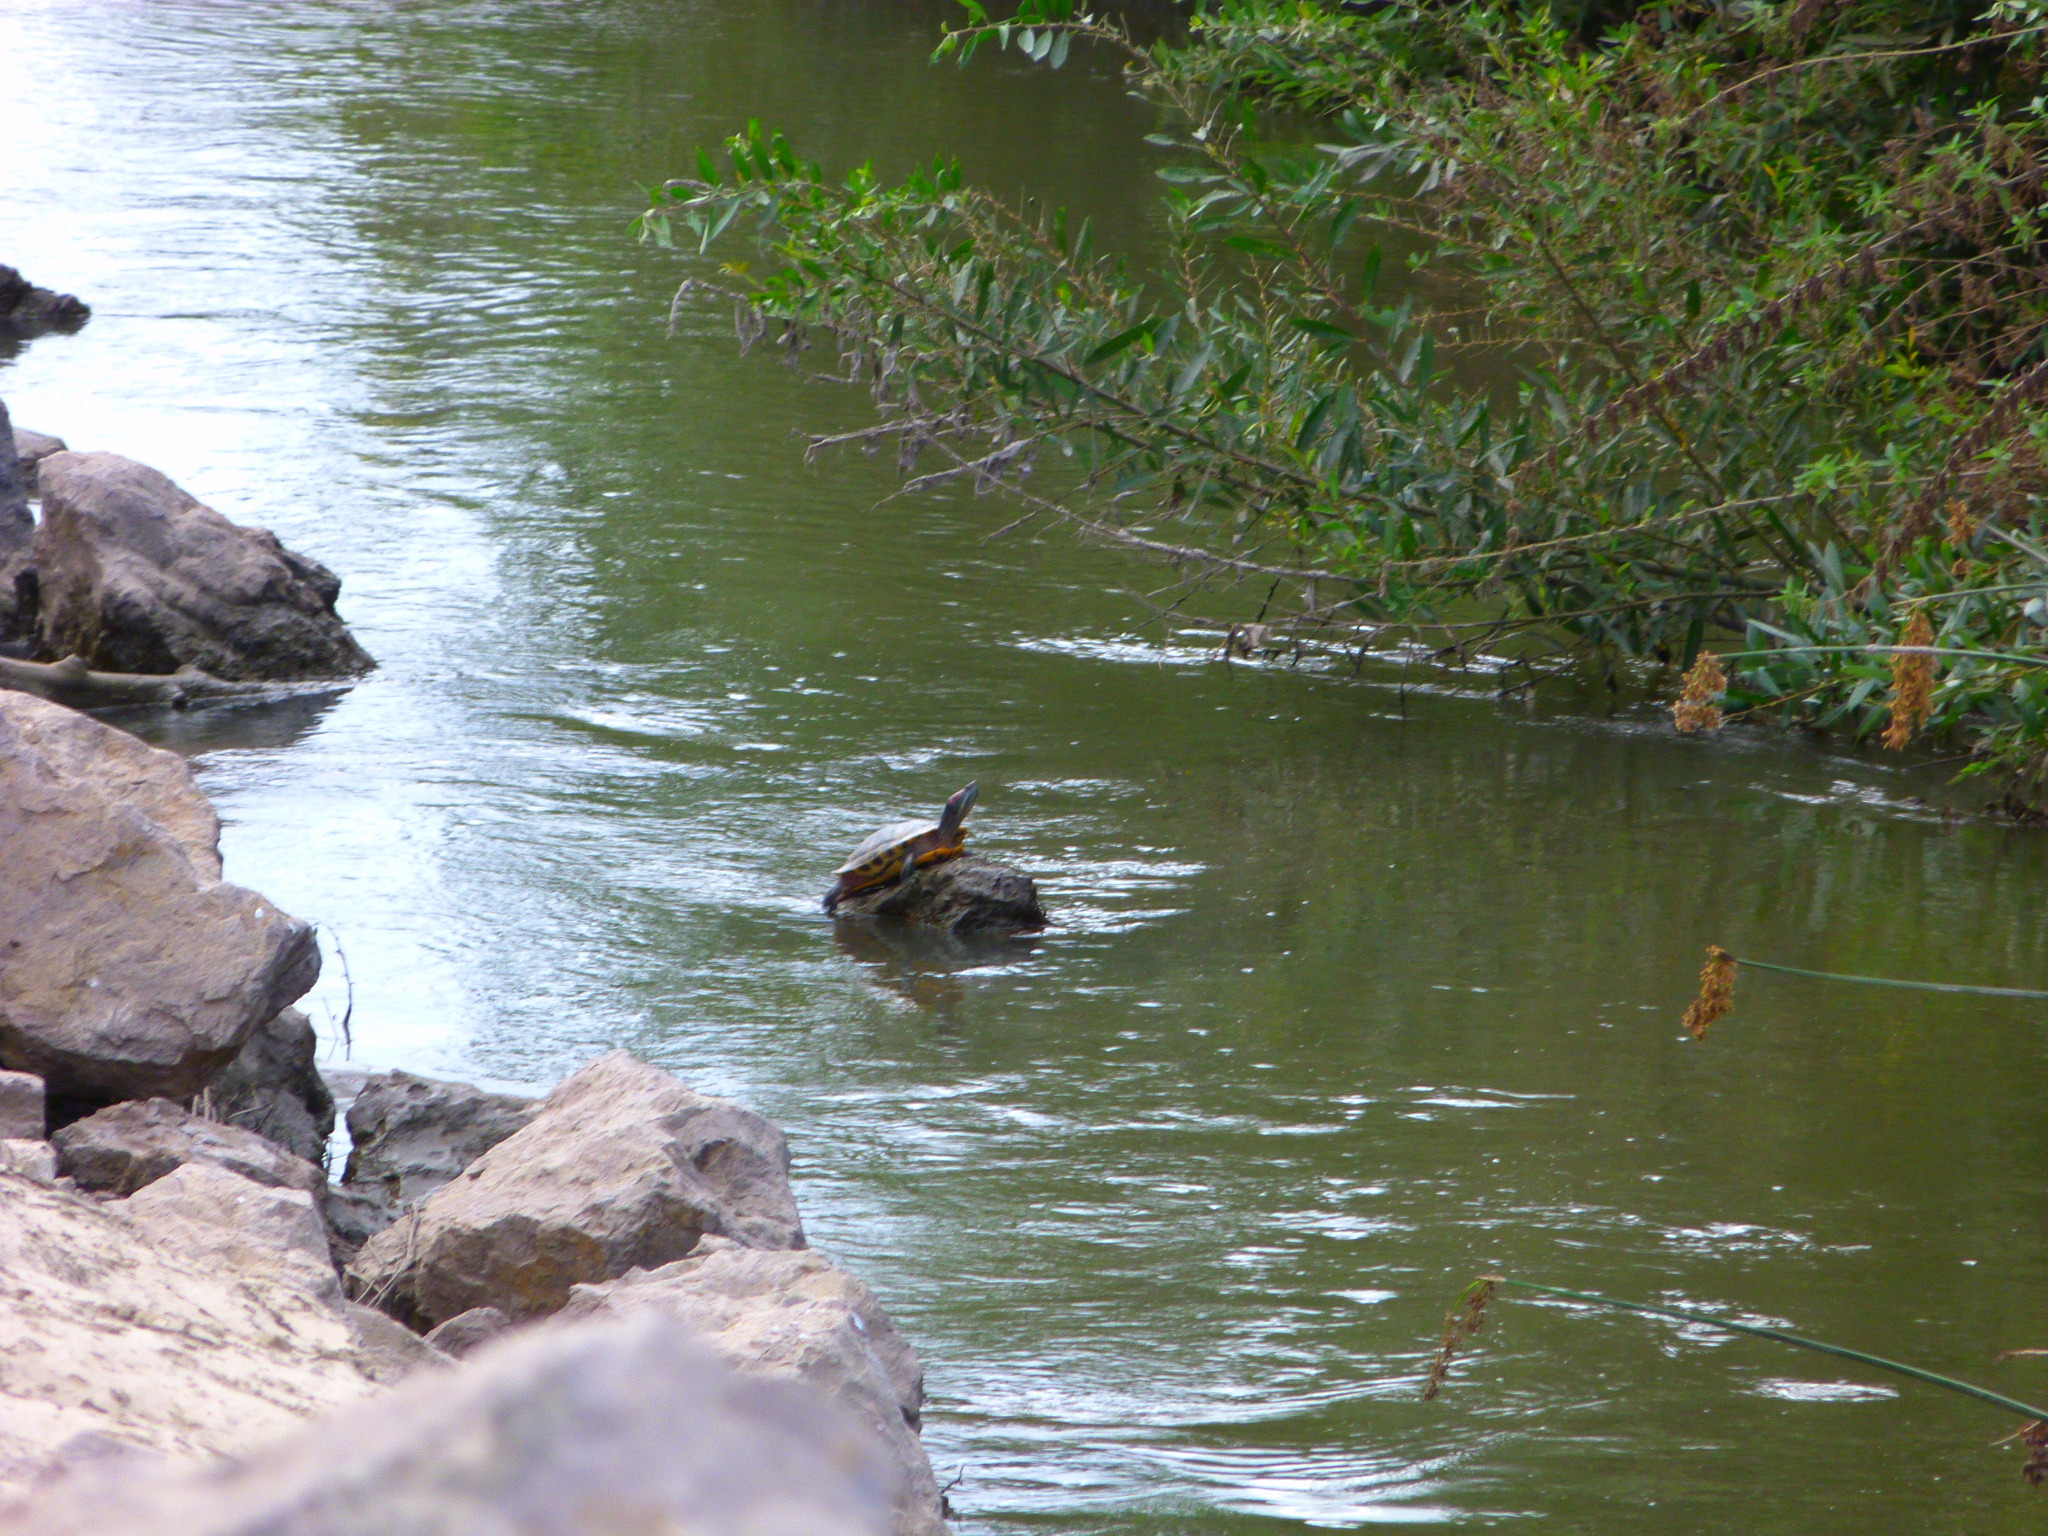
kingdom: Animalia
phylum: Chordata
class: Testudines
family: Emydidae
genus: Trachemys
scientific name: Trachemys scripta
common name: Slider
